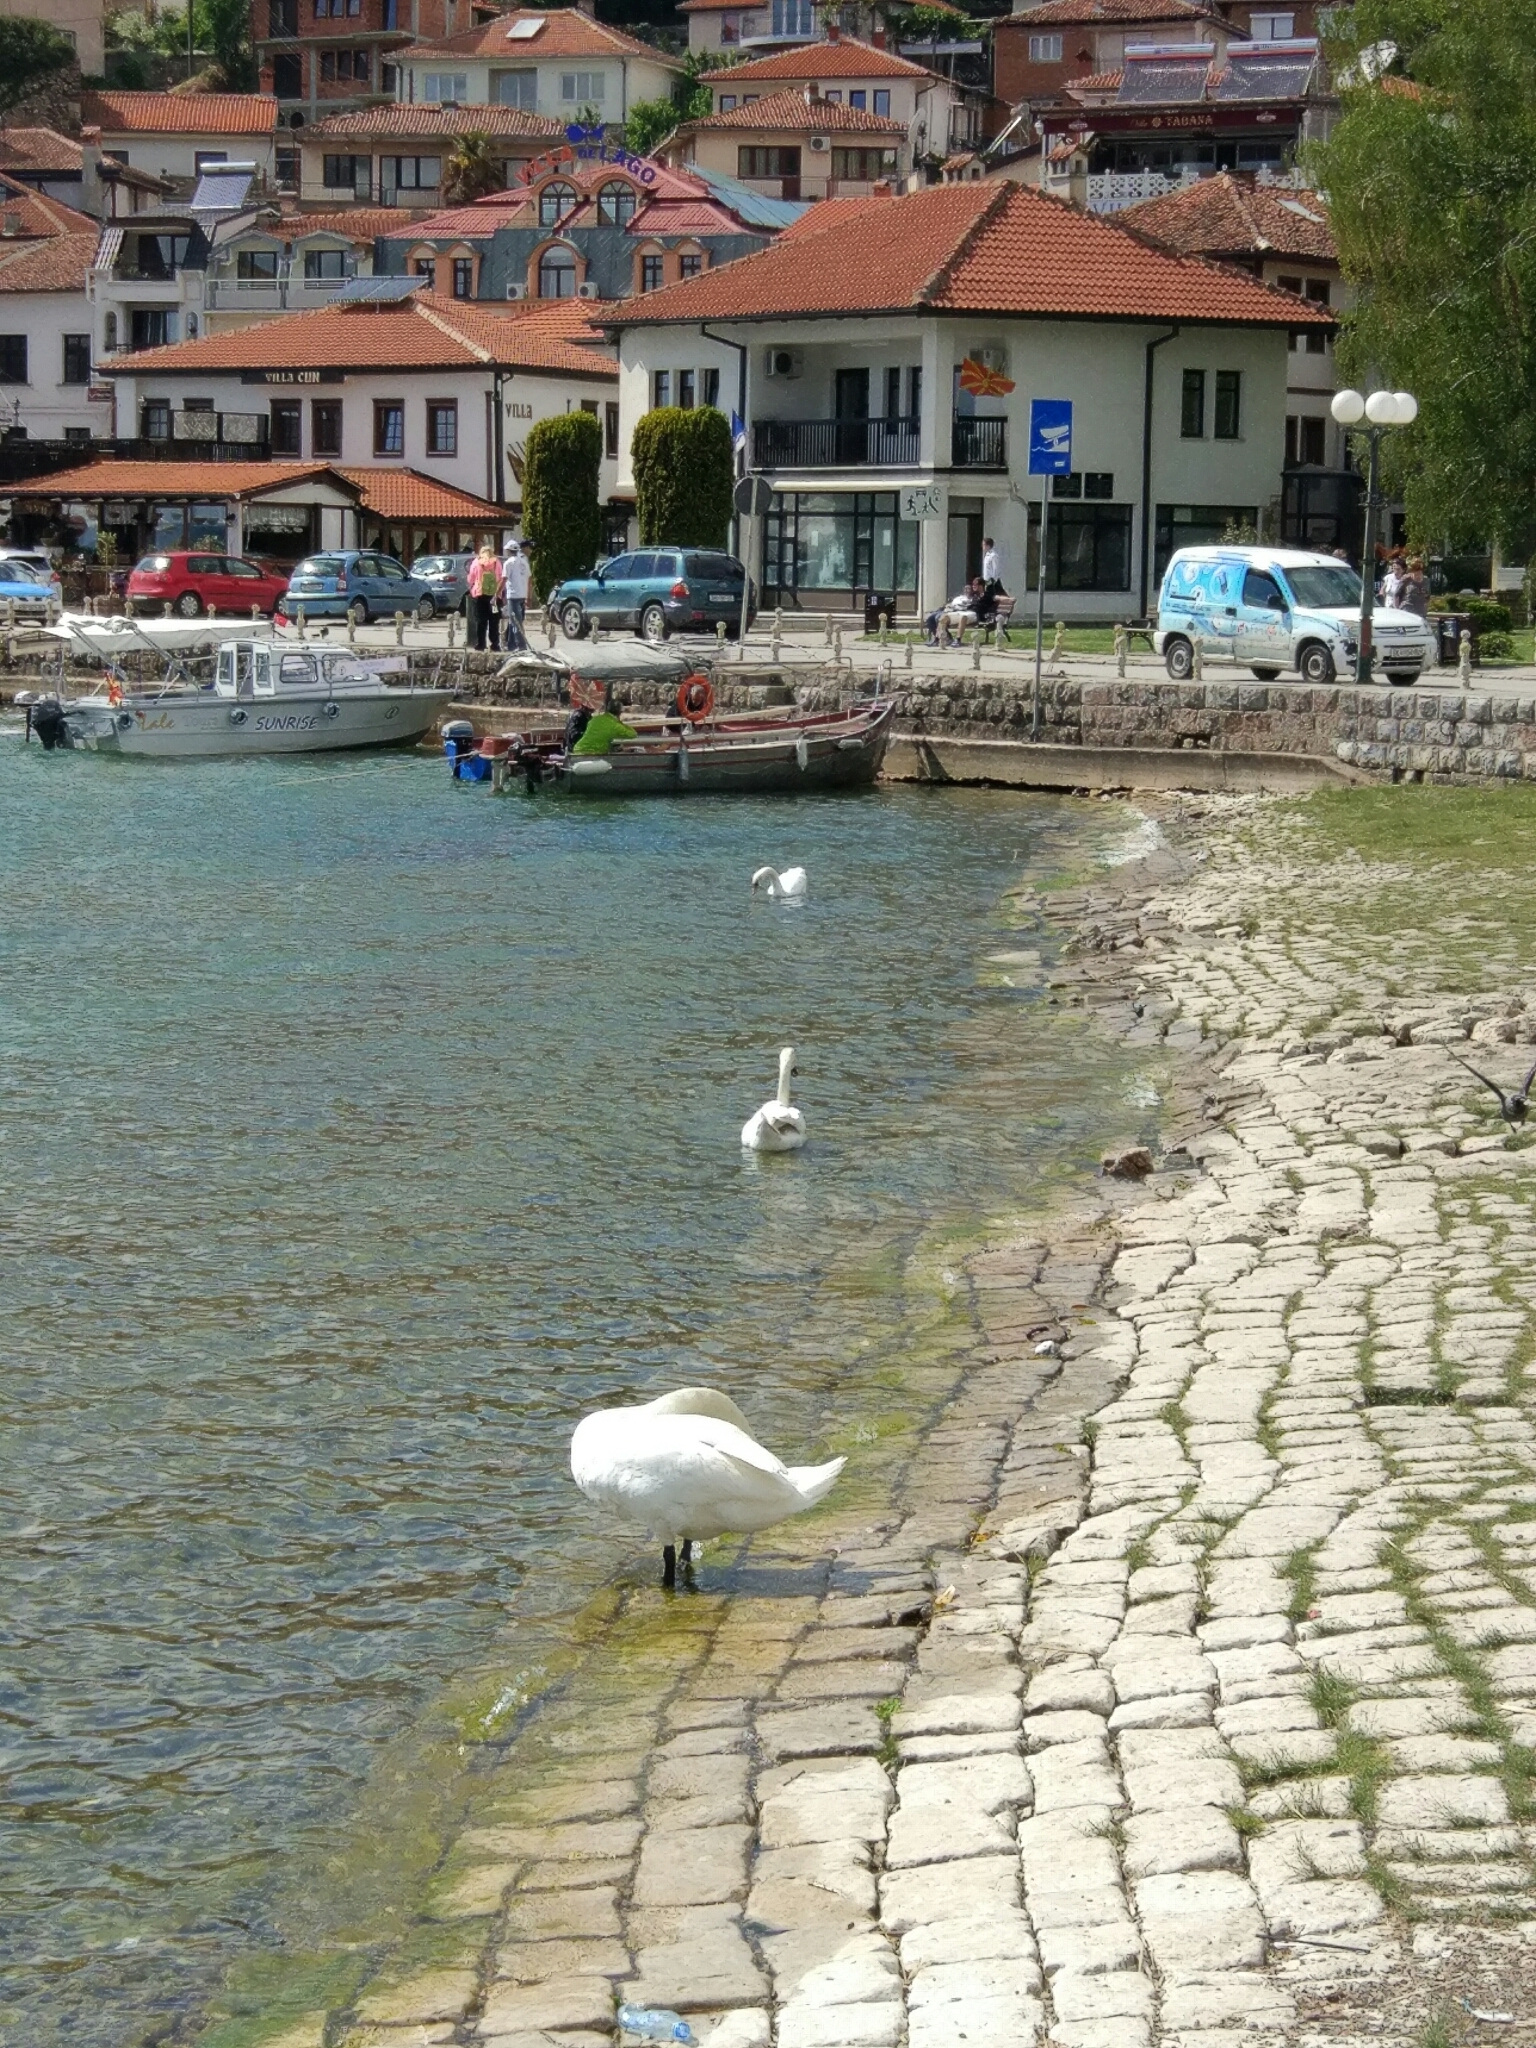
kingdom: Animalia
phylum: Chordata
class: Aves
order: Anseriformes
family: Anatidae
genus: Cygnus
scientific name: Cygnus olor
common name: Mute swan
